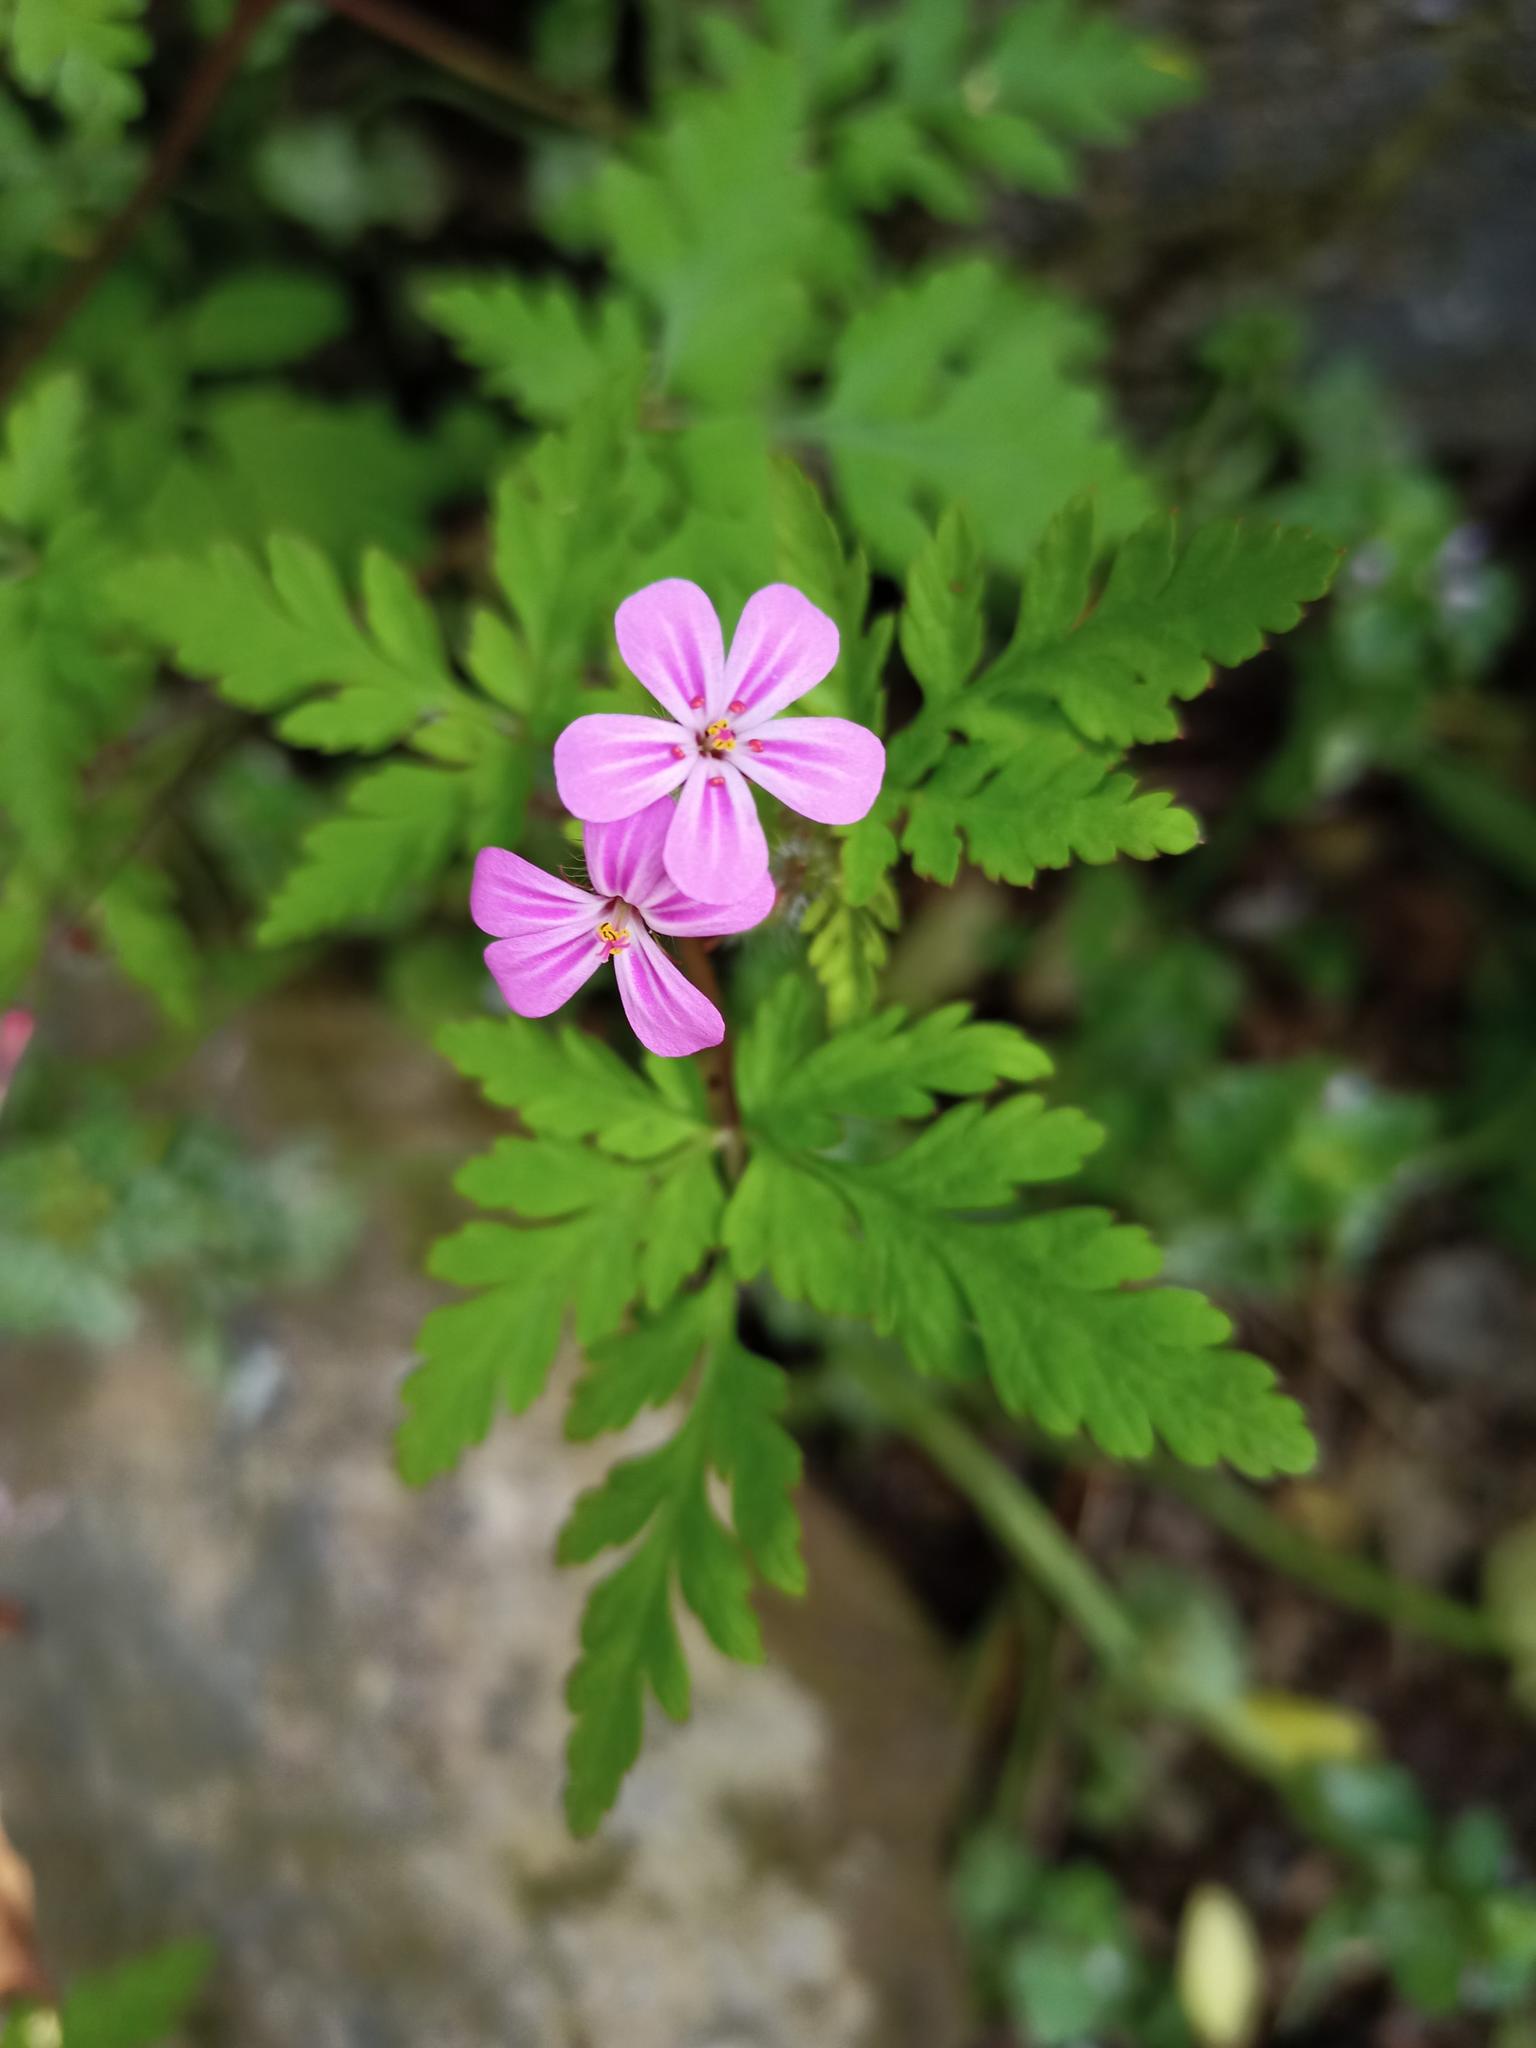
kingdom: Plantae
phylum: Tracheophyta
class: Magnoliopsida
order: Geraniales
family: Geraniaceae
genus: Geranium
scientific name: Geranium robertianum
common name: Herb-robert
